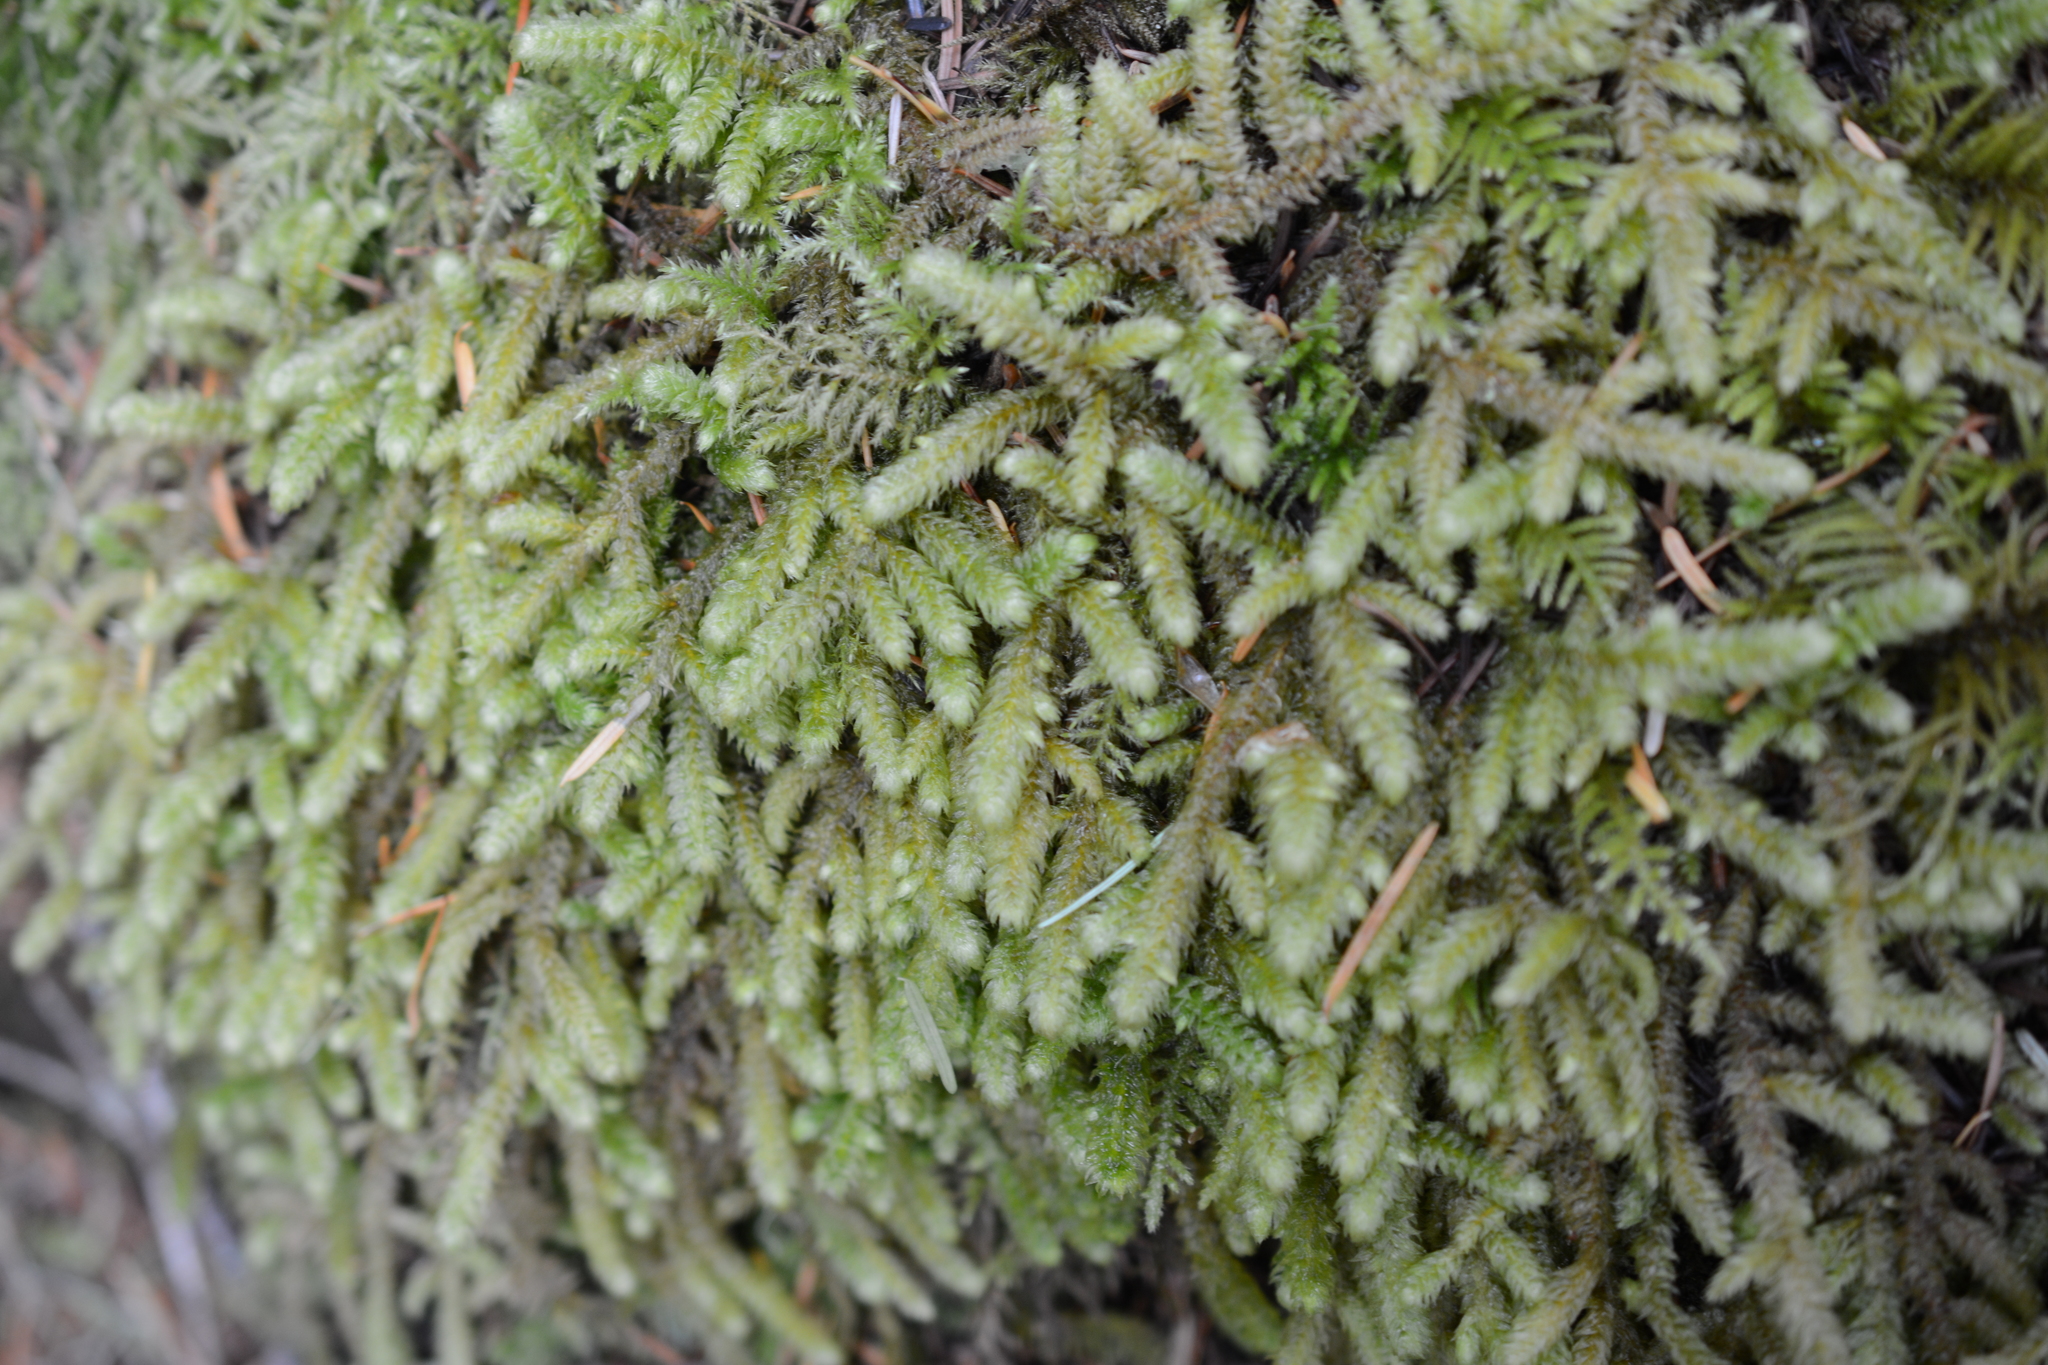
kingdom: Plantae
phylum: Bryophyta
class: Bryopsida
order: Hypnales
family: Hylocomiaceae
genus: Rhytidiopsis
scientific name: Rhytidiopsis robusta
